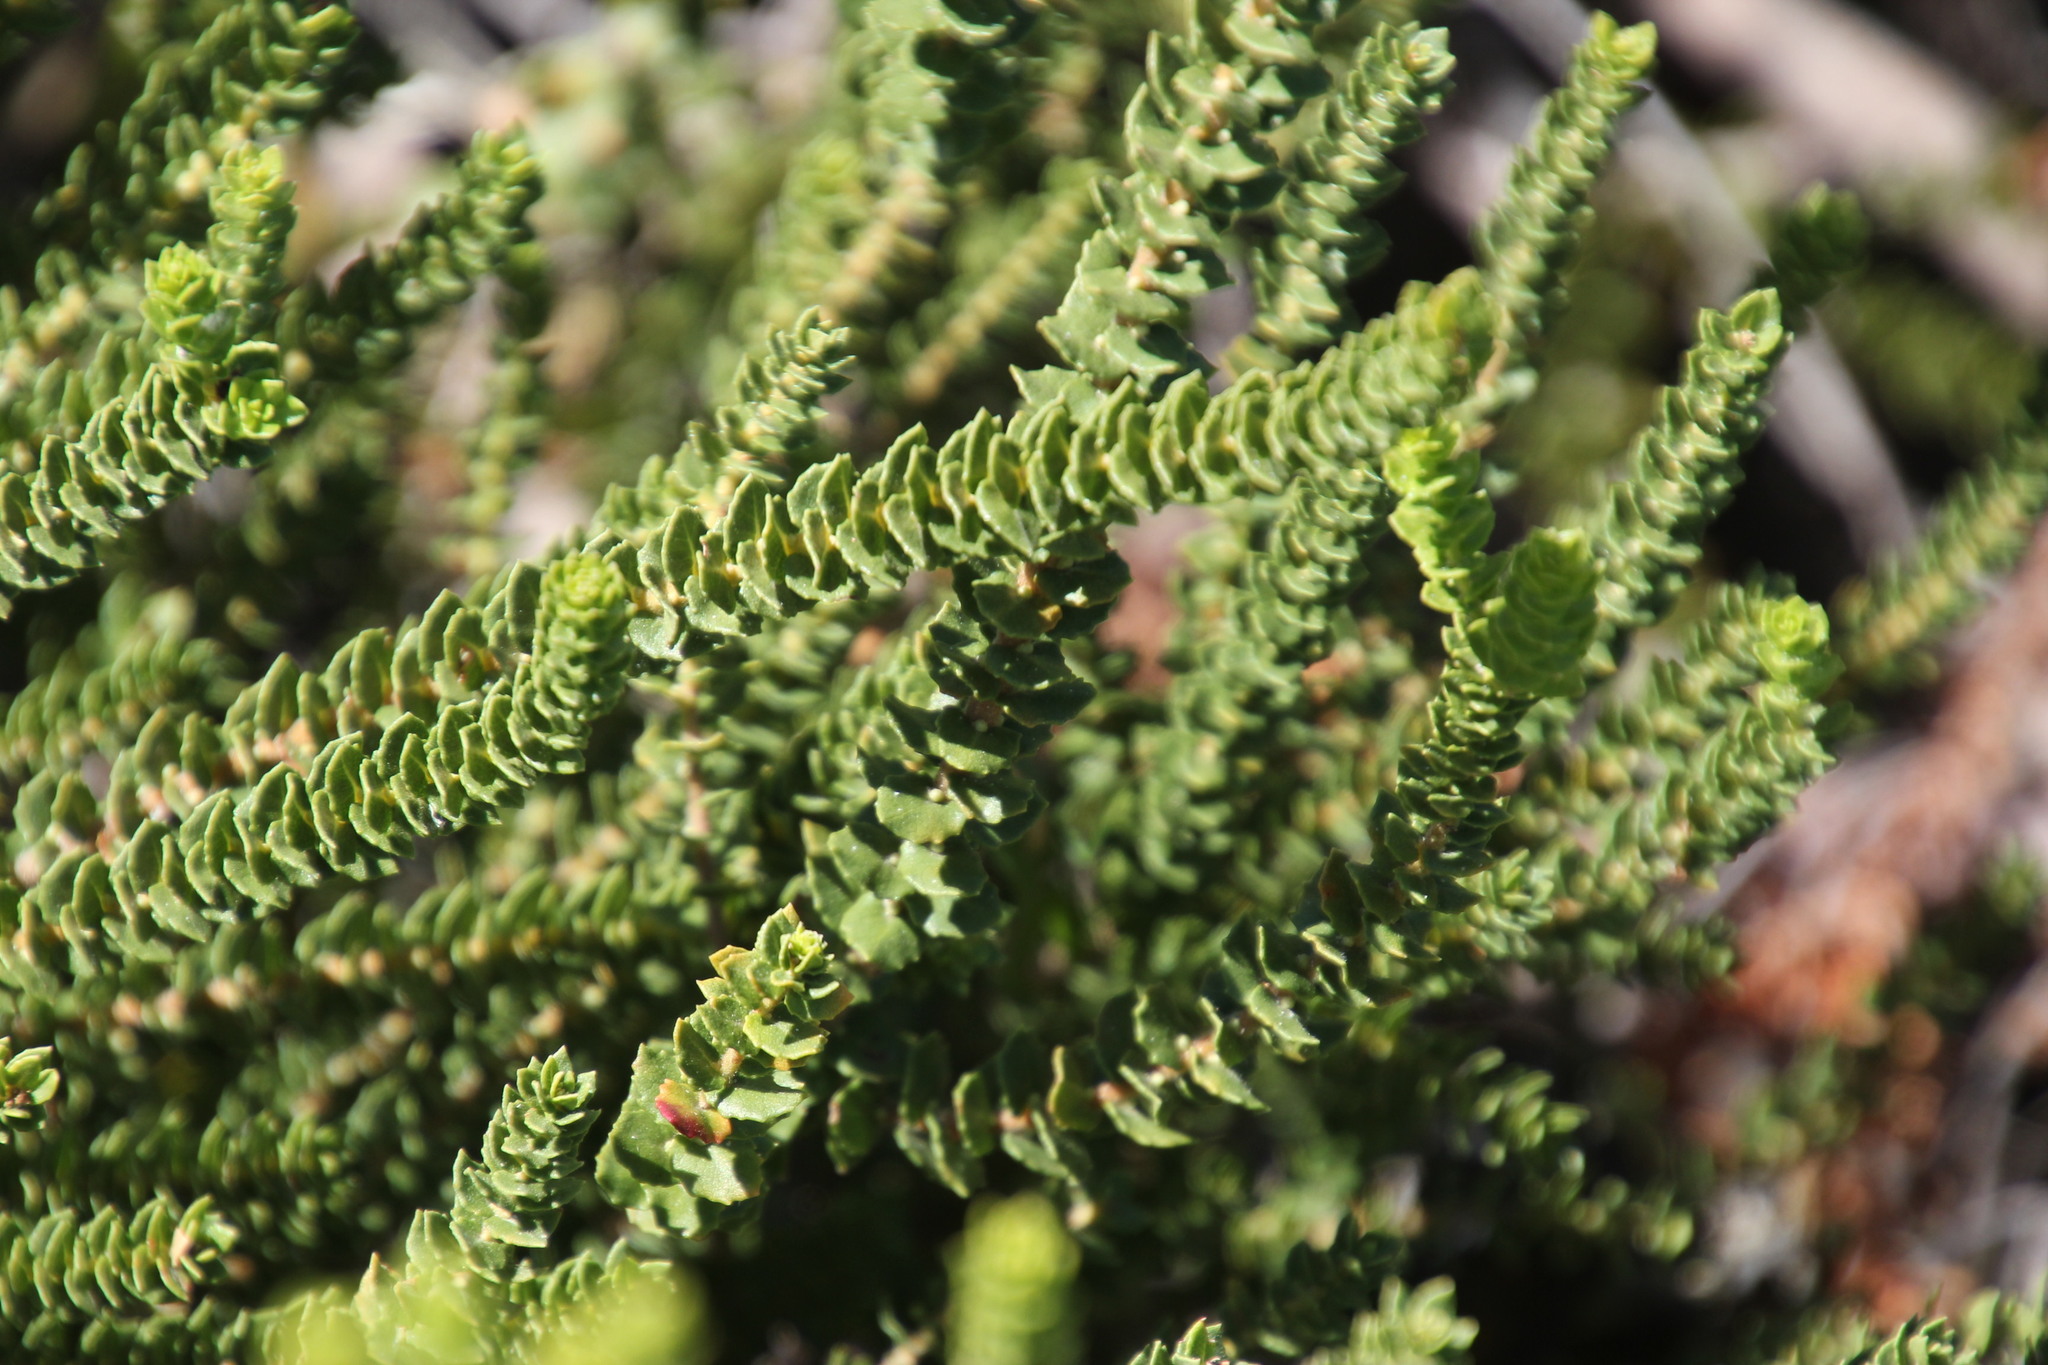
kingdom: Plantae
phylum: Tracheophyta
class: Magnoliopsida
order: Fagales
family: Myricaceae
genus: Morella
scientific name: Morella cordifolia
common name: Waxberry
